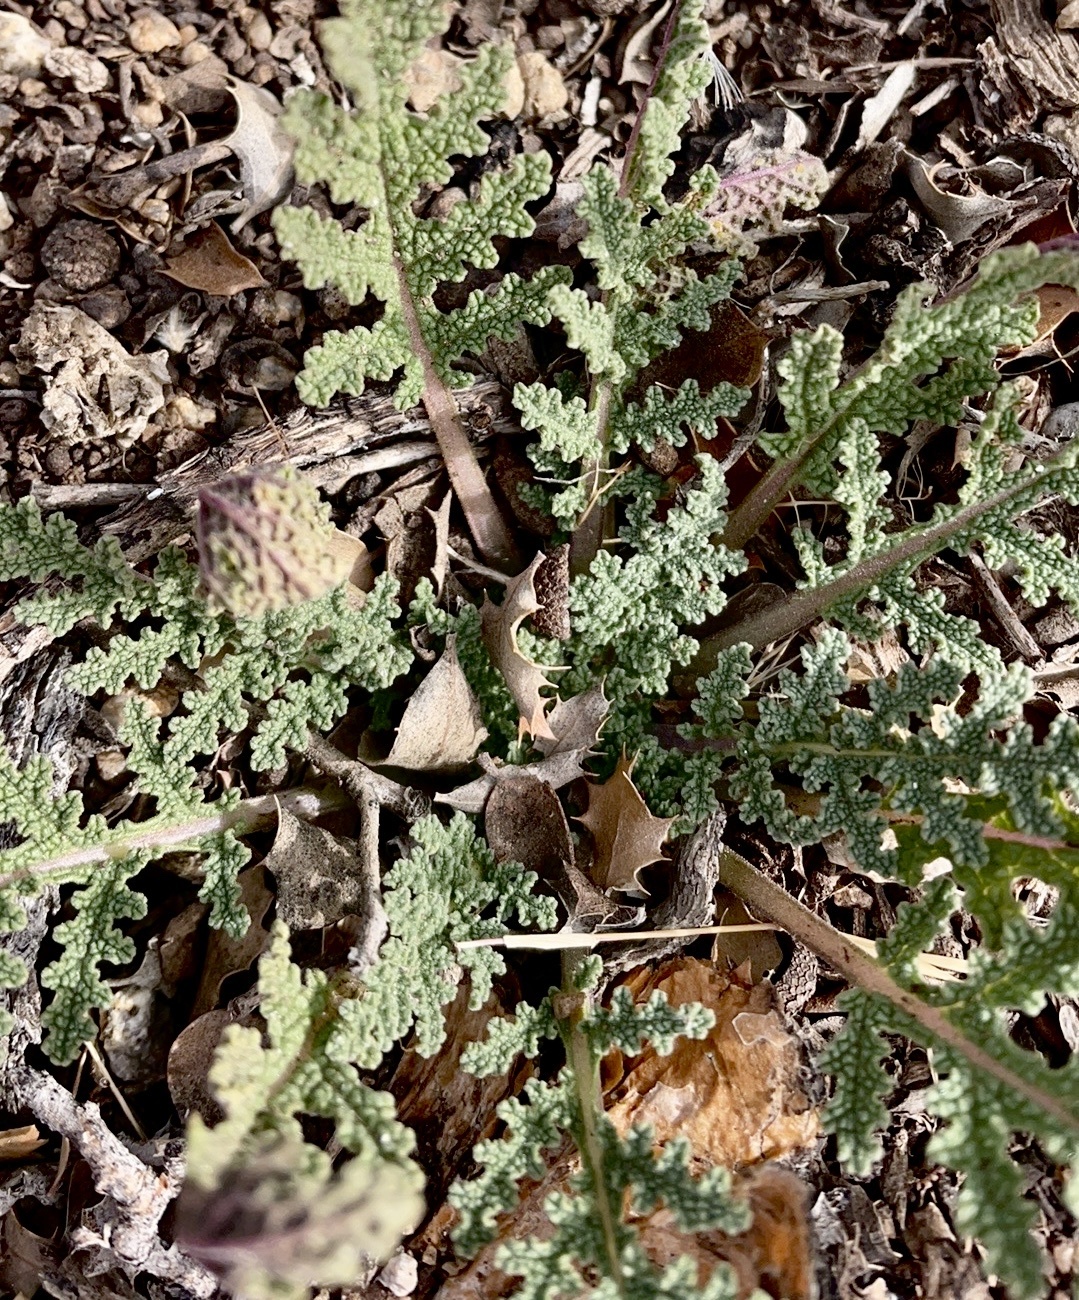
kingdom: Plantae
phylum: Tracheophyta
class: Magnoliopsida
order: Lamiales
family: Lamiaceae
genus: Salvia
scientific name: Salvia columbariae
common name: Chia
